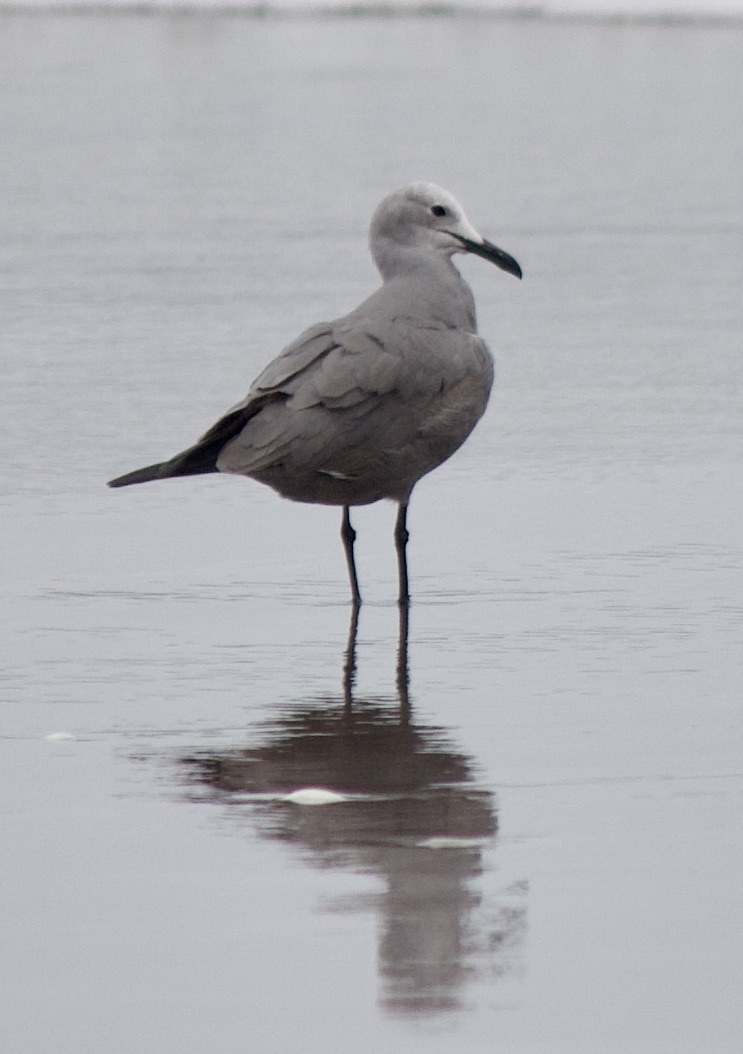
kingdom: Animalia
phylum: Chordata
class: Aves
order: Charadriiformes
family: Laridae
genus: Leucophaeus
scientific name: Leucophaeus modestus
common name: Gray gull
